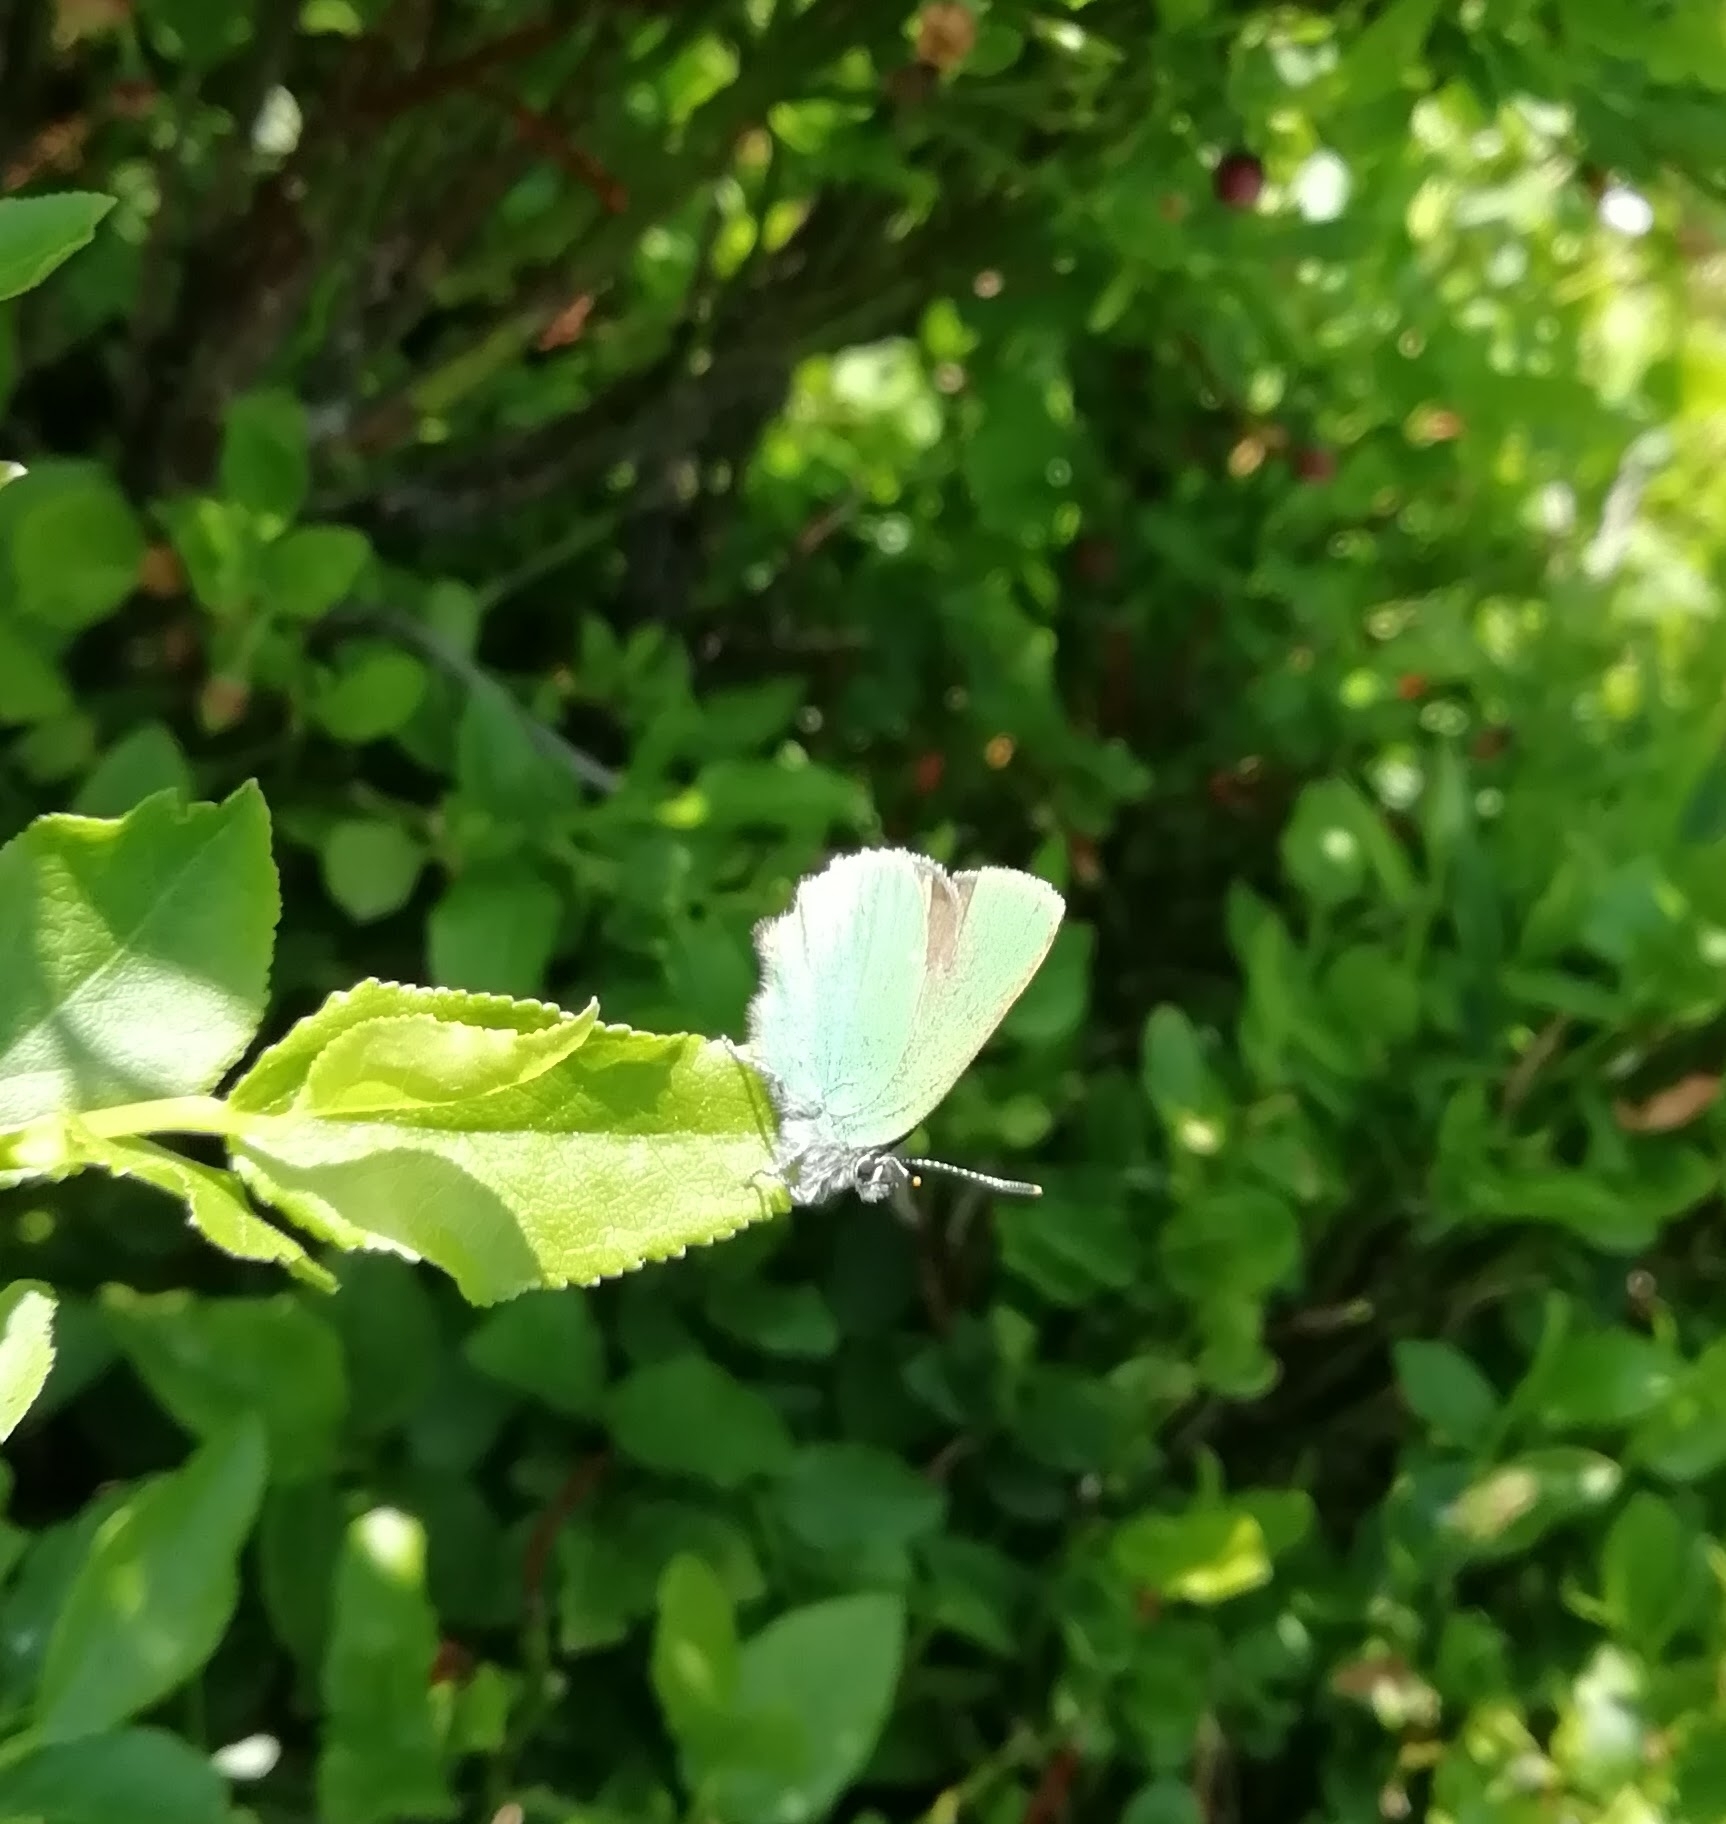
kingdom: Animalia
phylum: Arthropoda
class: Insecta
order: Lepidoptera
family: Lycaenidae
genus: Callophrys
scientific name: Callophrys rubi
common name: Green hairstreak
